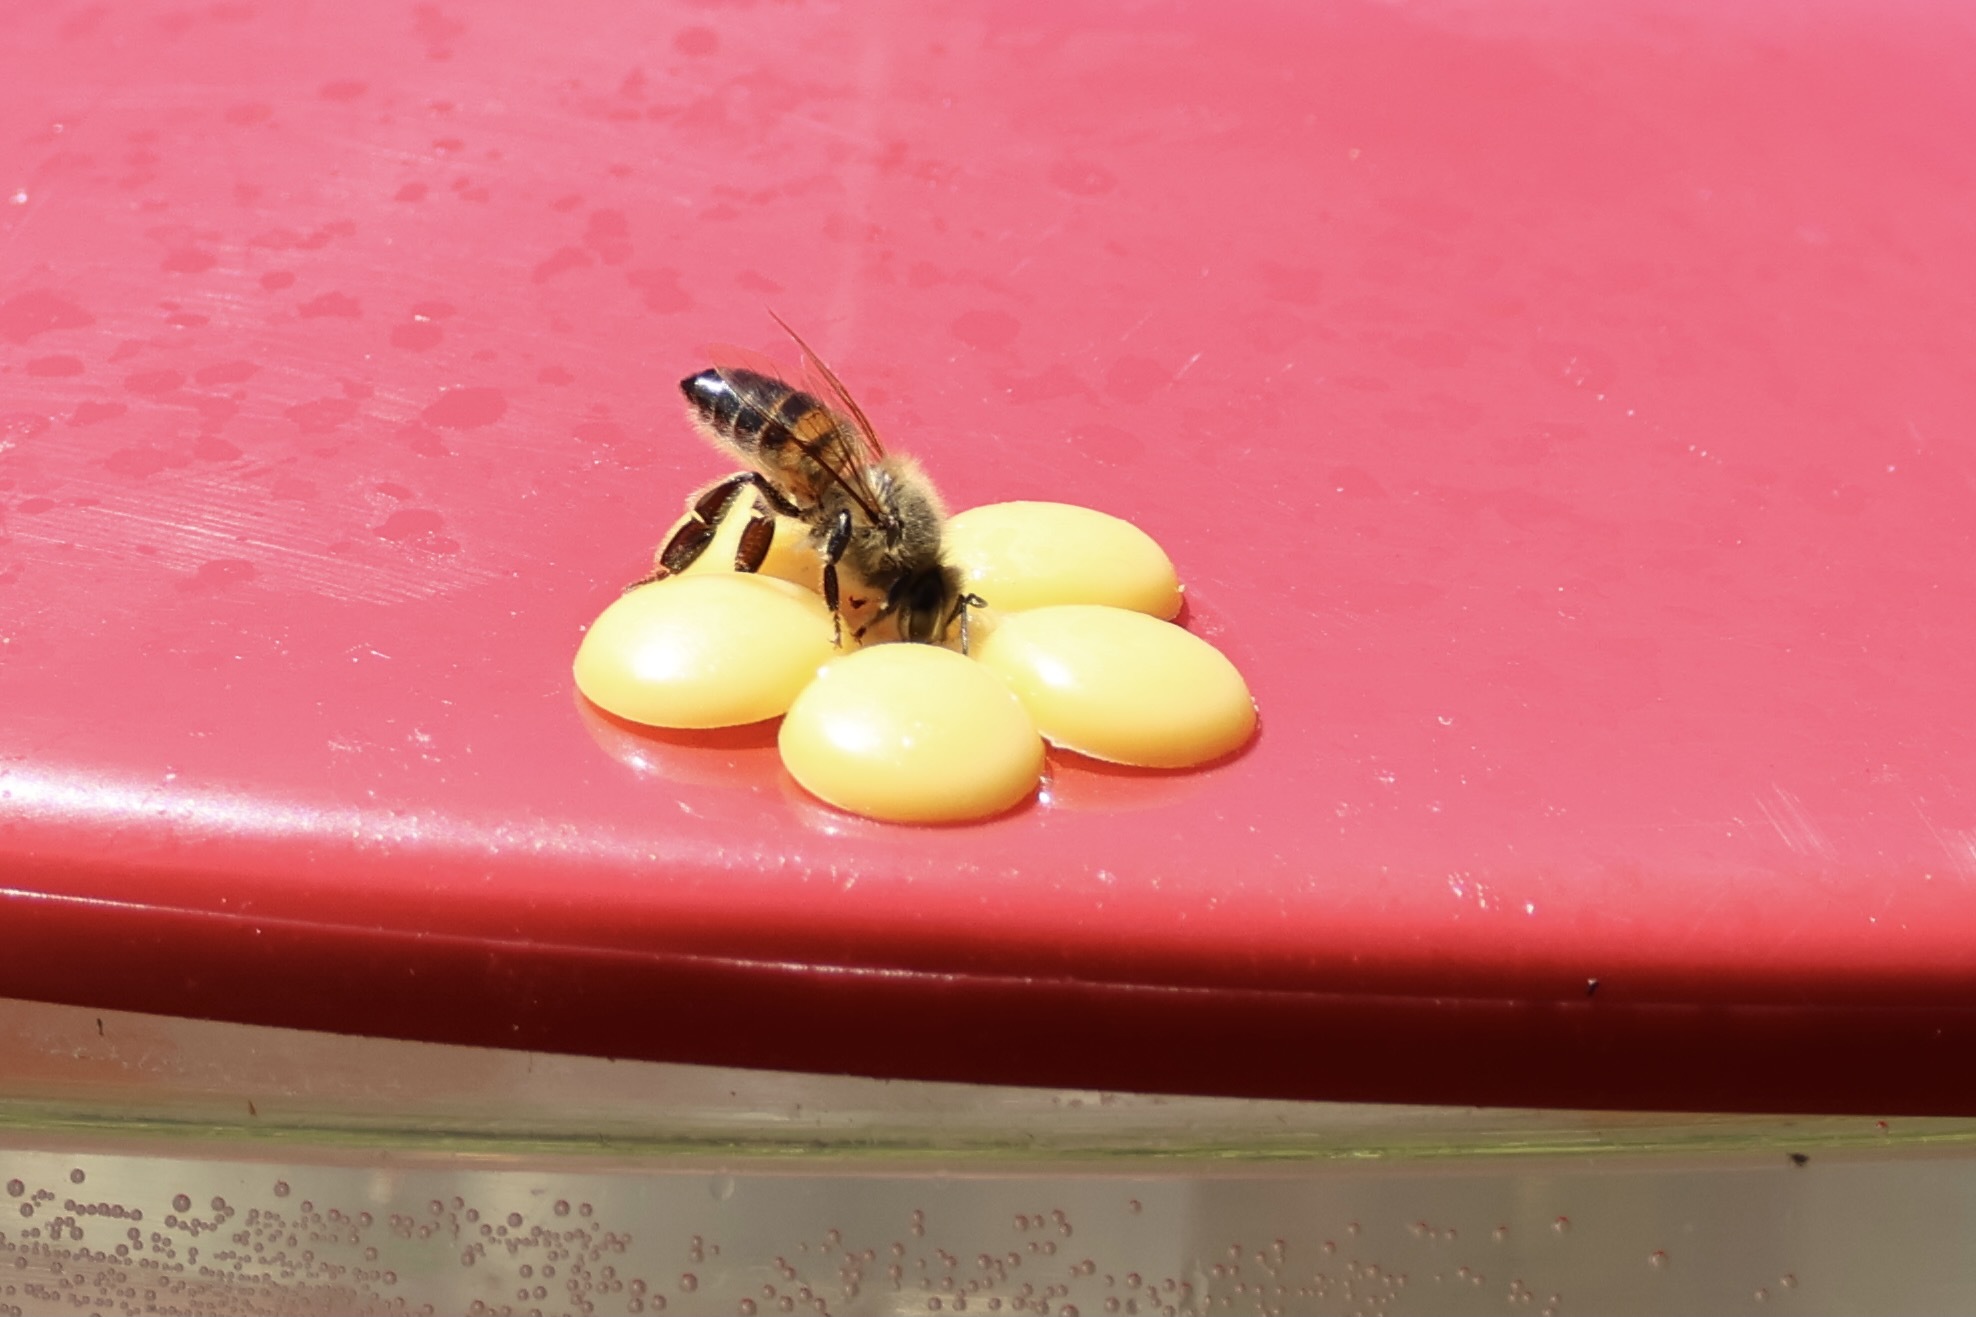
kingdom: Animalia
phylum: Arthropoda
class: Insecta
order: Hymenoptera
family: Apidae
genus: Apis
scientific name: Apis mellifera
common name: Honey bee
